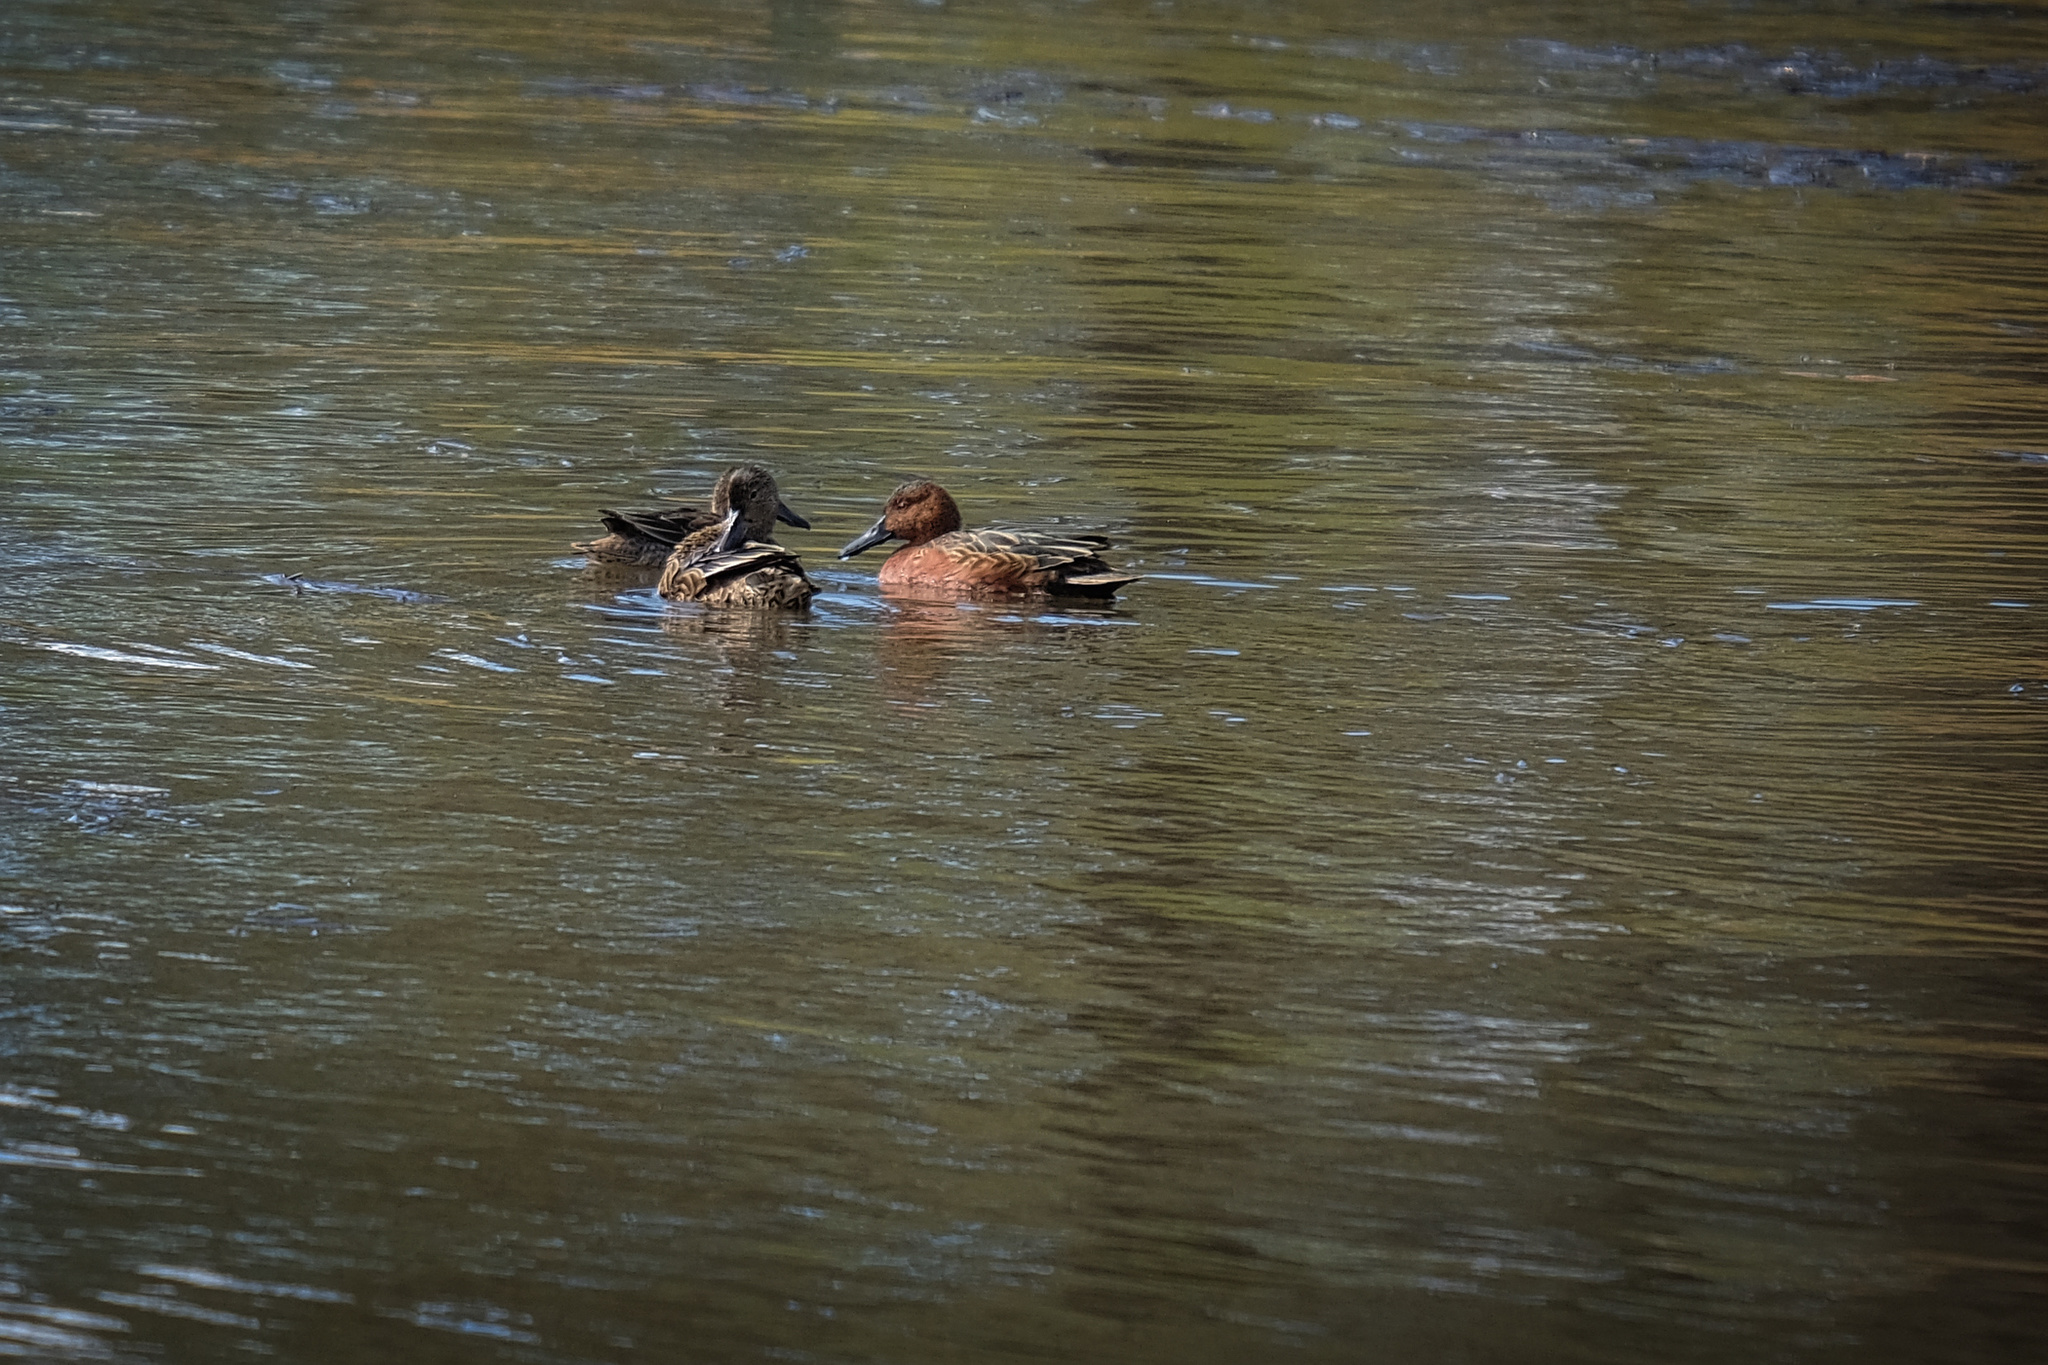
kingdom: Animalia
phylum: Chordata
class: Aves
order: Anseriformes
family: Anatidae
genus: Spatula
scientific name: Spatula cyanoptera
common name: Cinnamon teal
